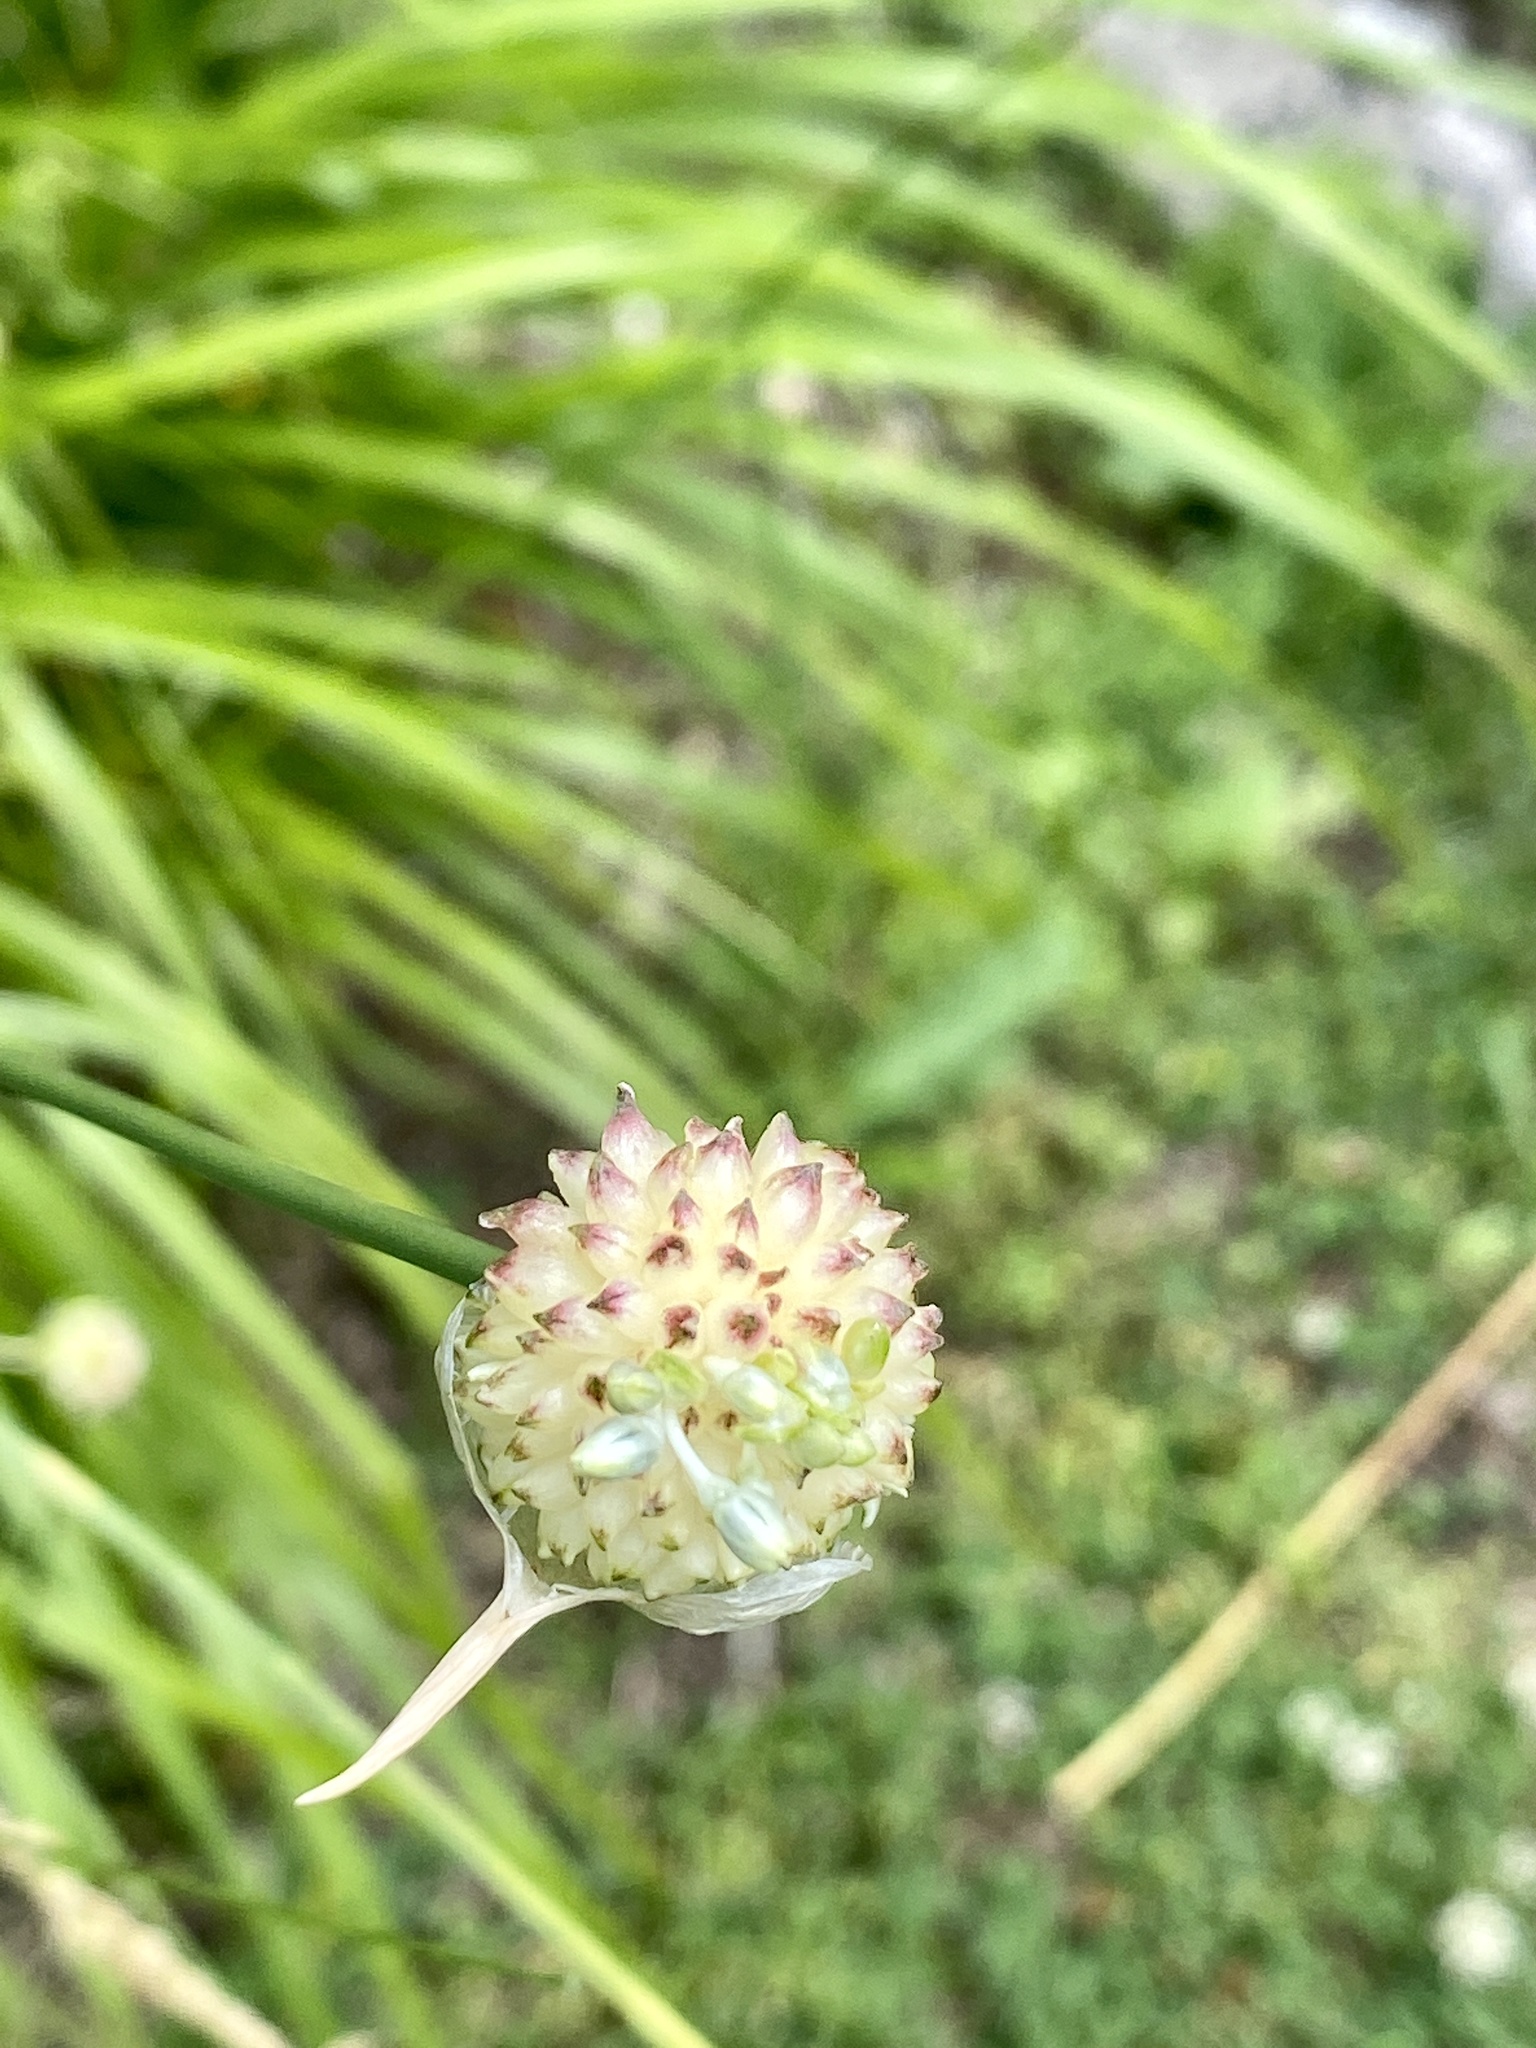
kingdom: Plantae
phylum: Tracheophyta
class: Liliopsida
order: Asparagales
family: Amaryllidaceae
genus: Allium
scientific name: Allium vineale
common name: Crow garlic
